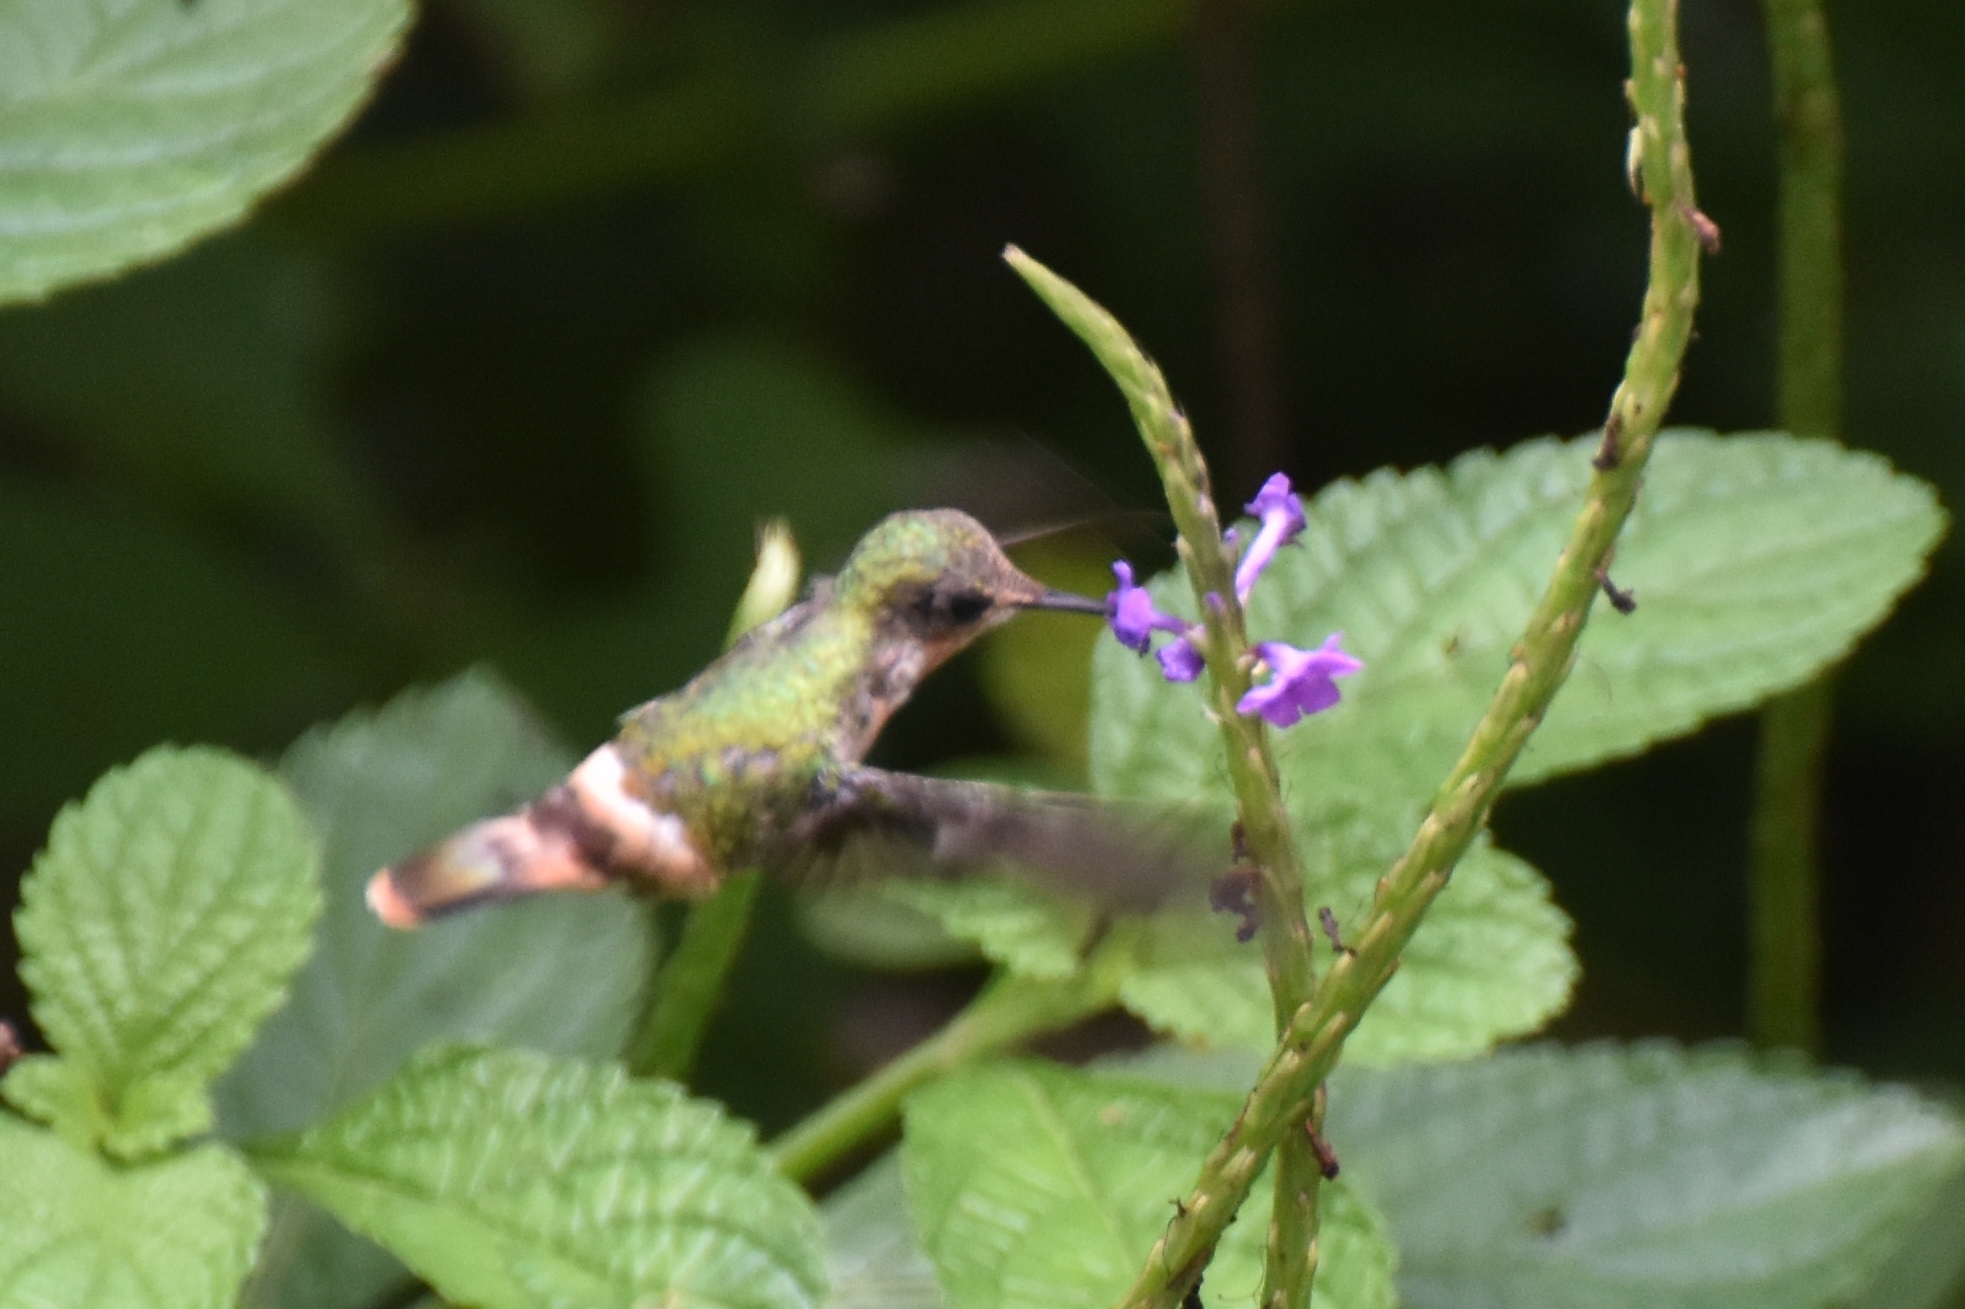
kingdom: Animalia
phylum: Chordata
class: Aves
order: Apodiformes
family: Trochilidae
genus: Lophornis
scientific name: Lophornis ornatus
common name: Tufted coquette
